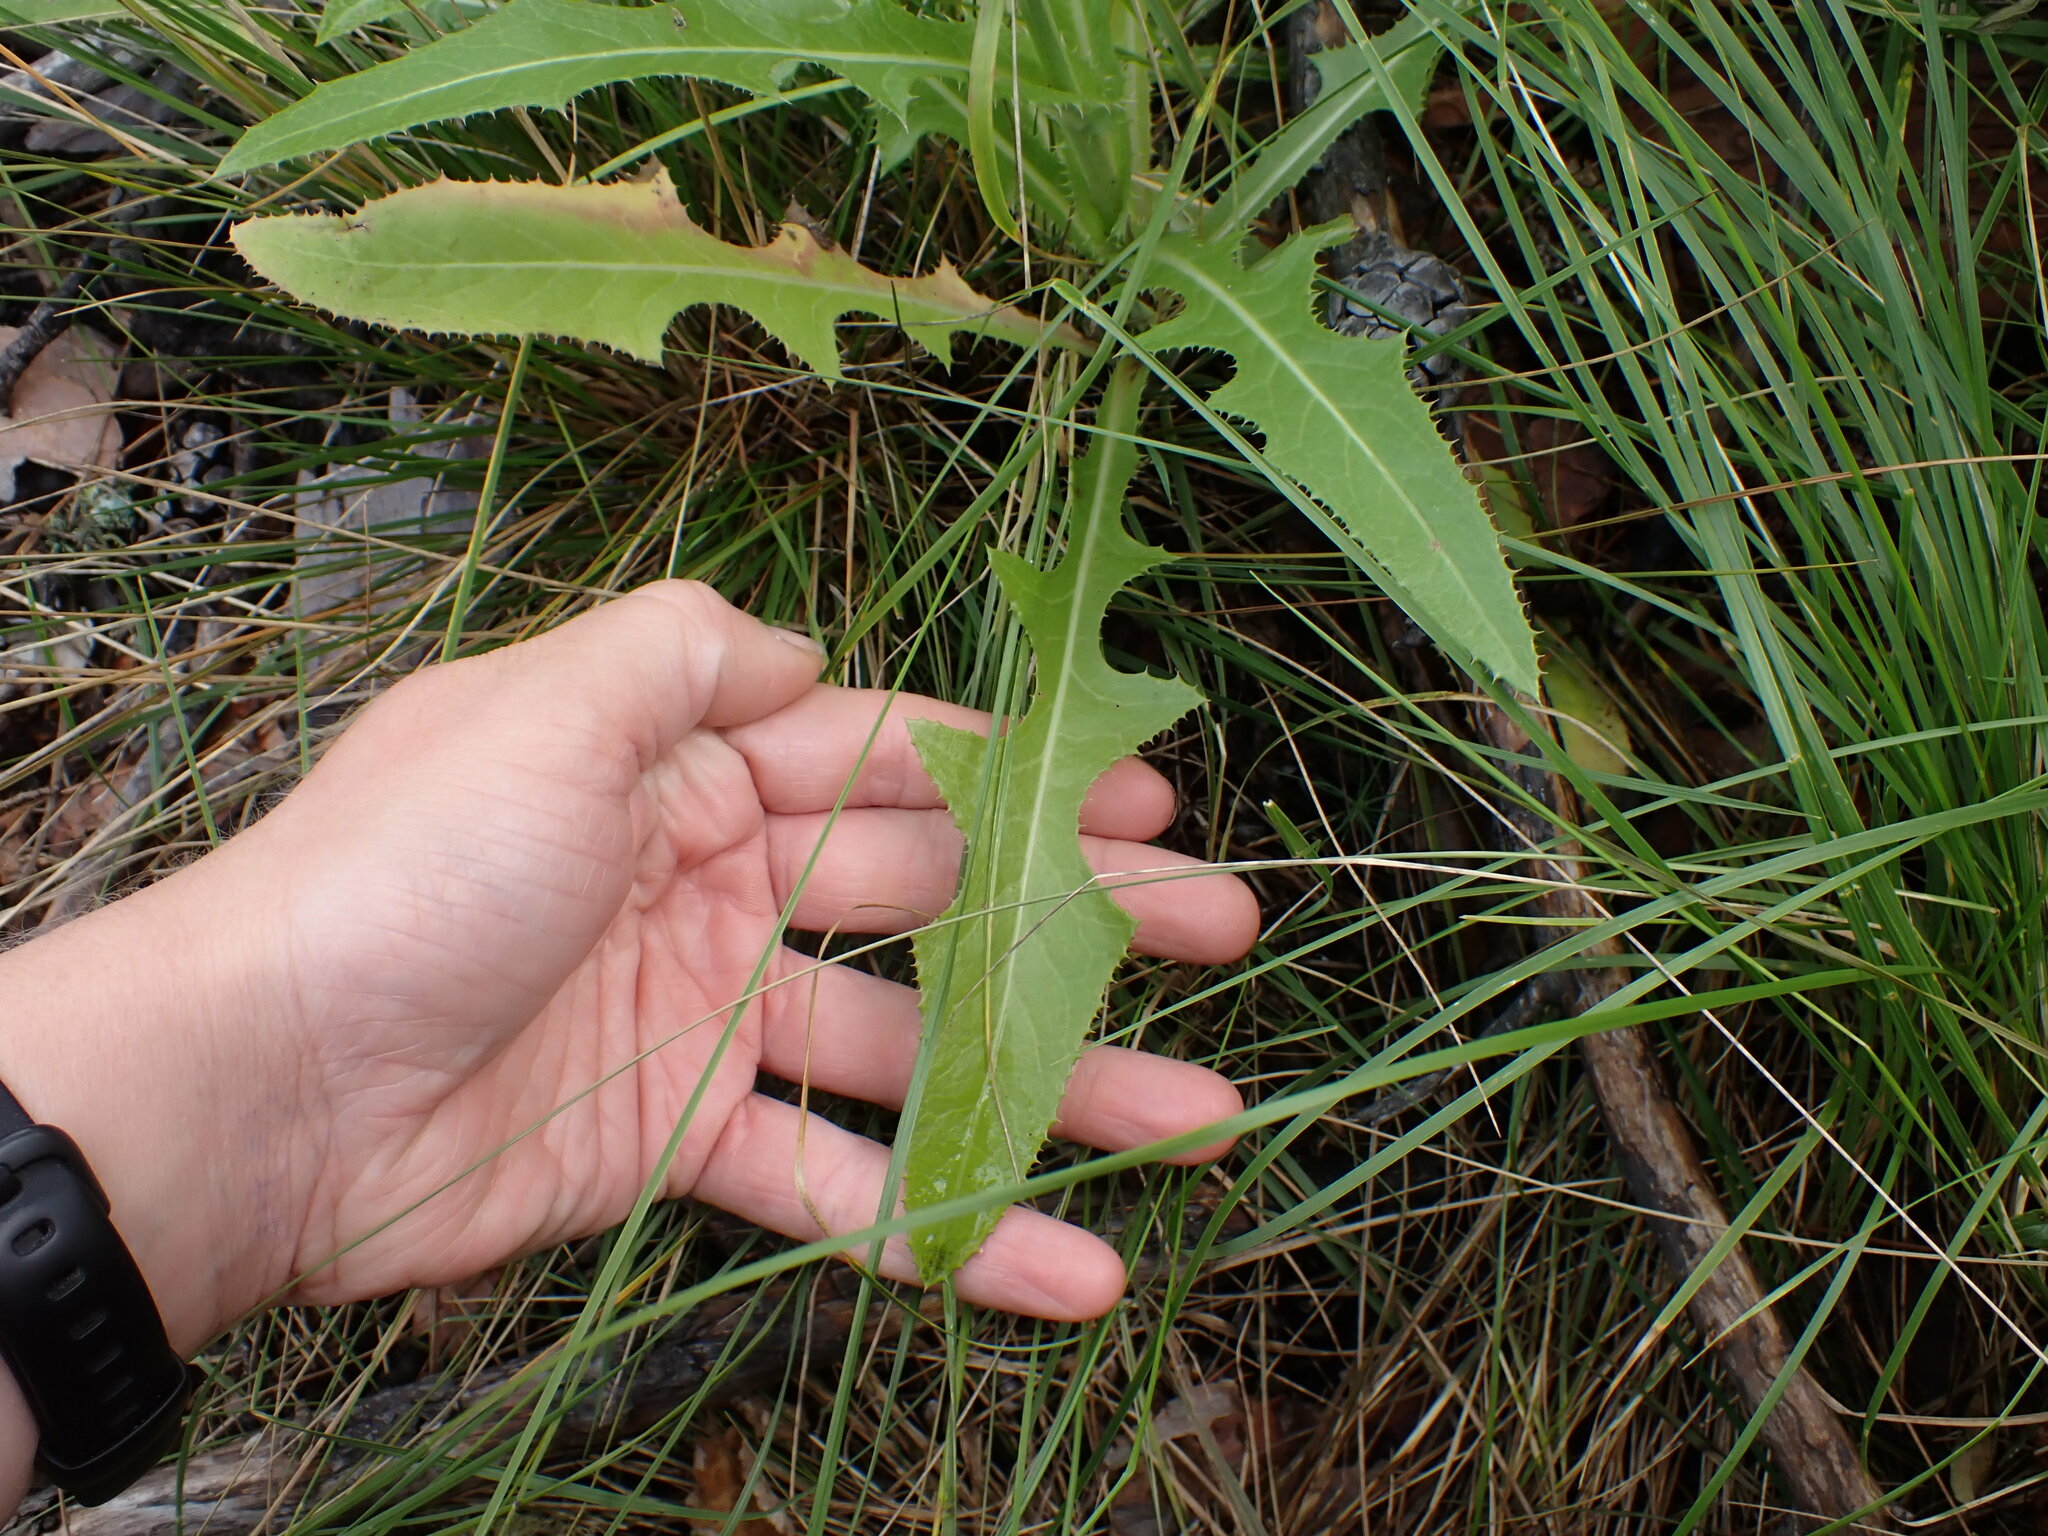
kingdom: Plantae
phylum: Tracheophyta
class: Magnoliopsida
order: Asterales
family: Asteraceae
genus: Sonchus
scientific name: Sonchus arvensis
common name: Perennial sow-thistle
